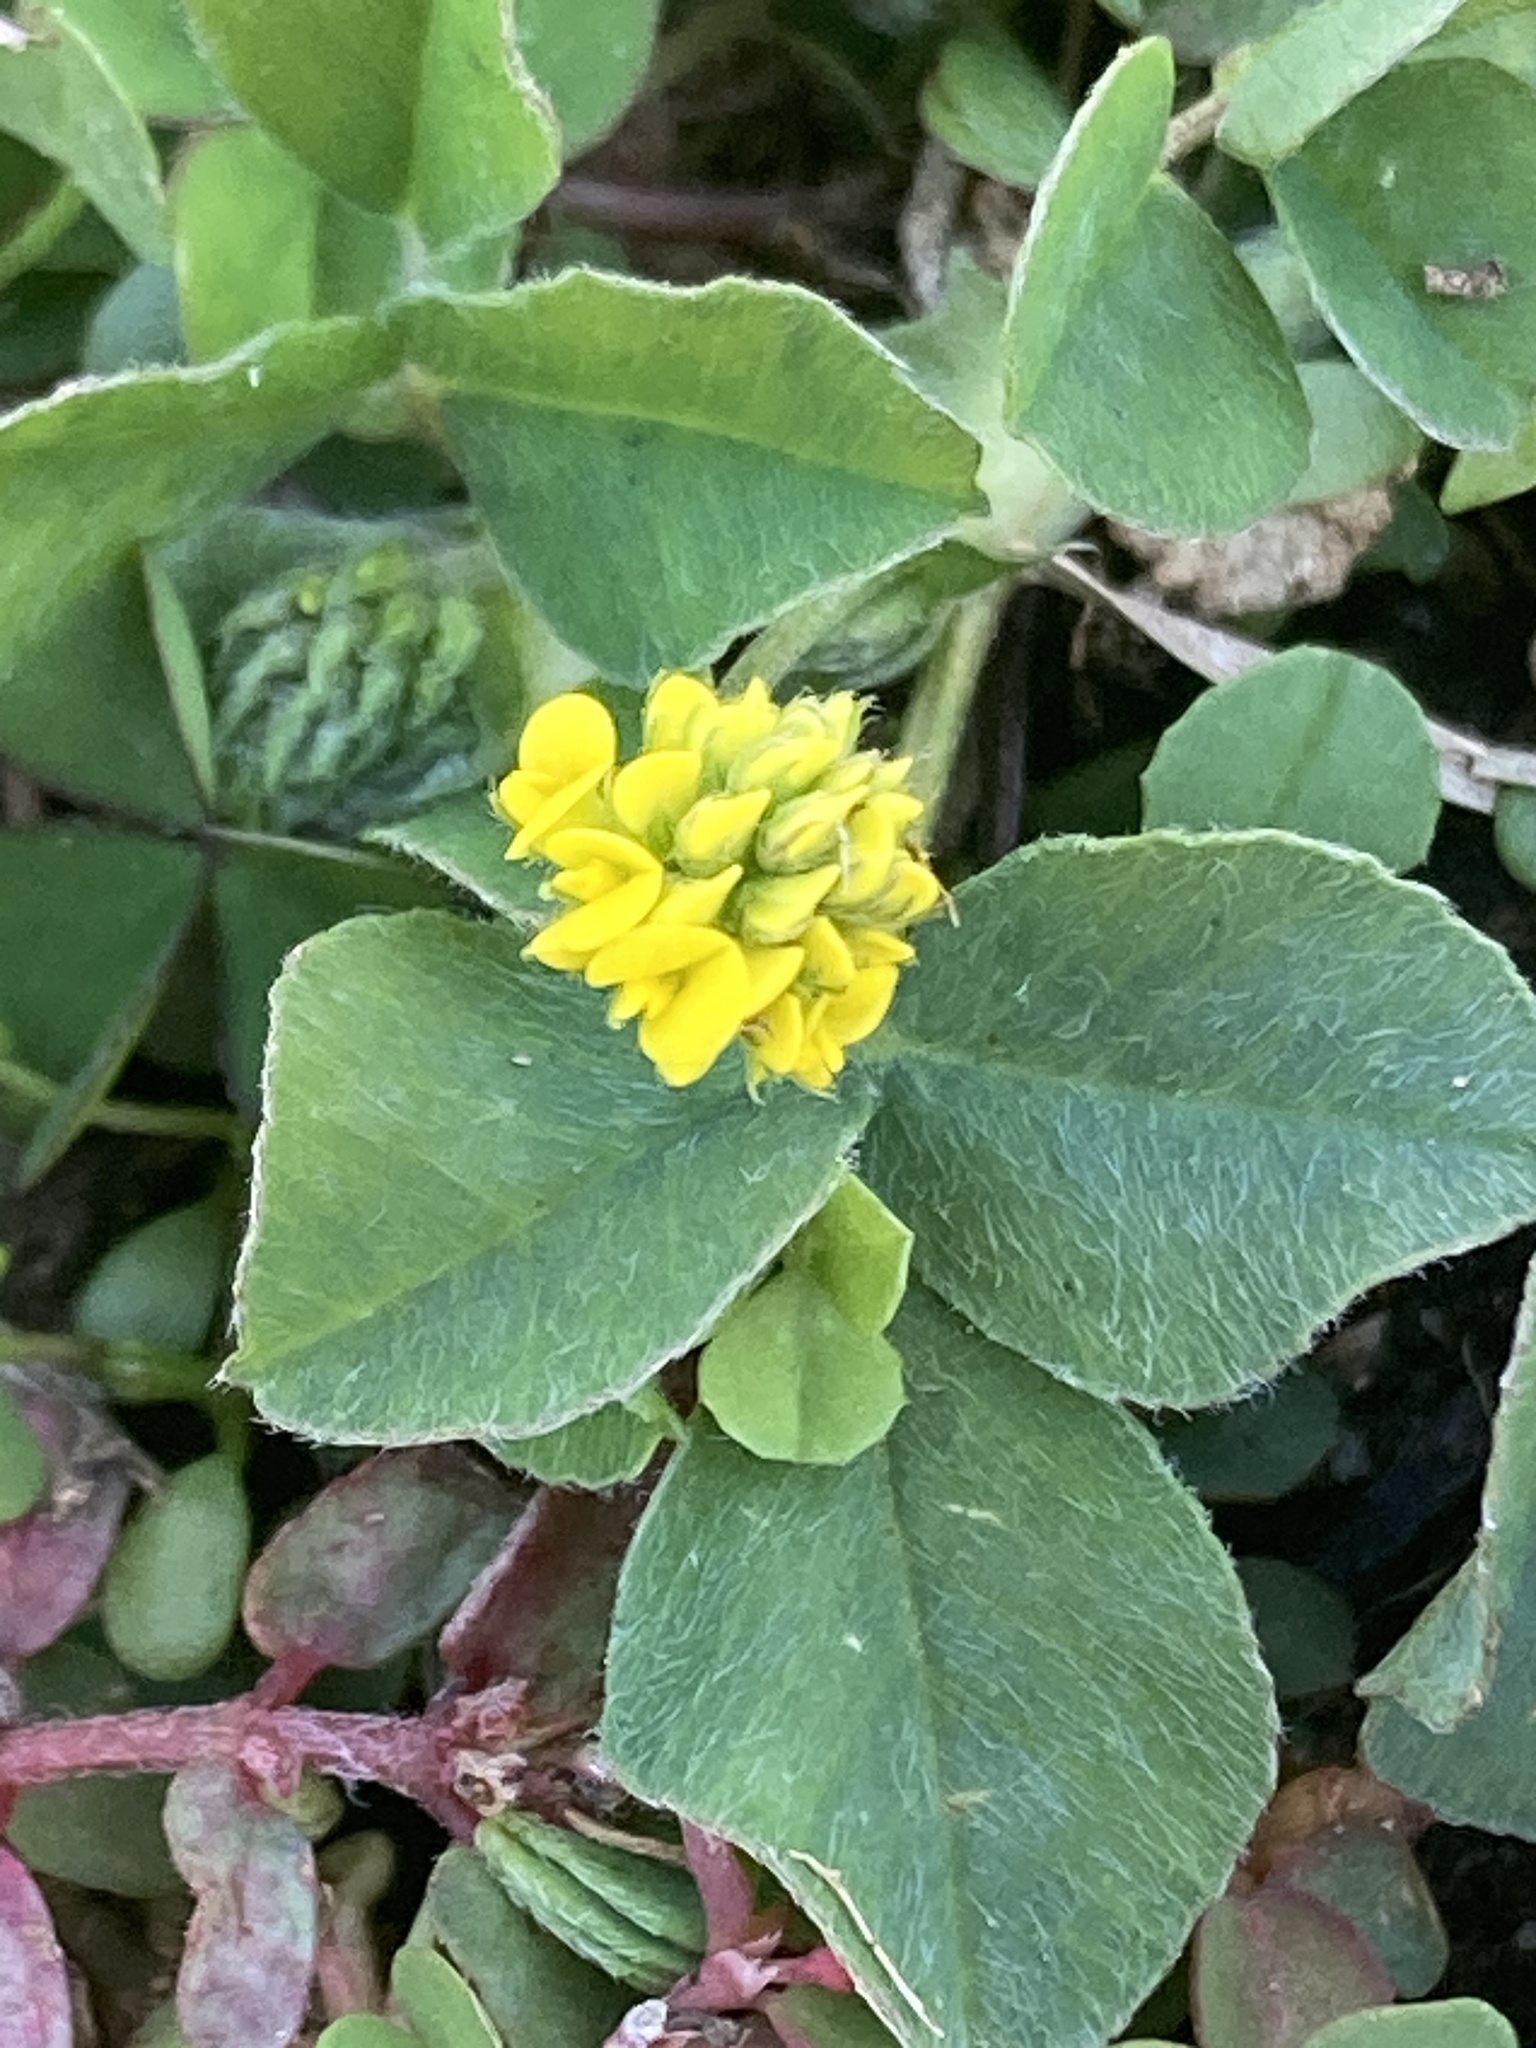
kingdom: Plantae
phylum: Tracheophyta
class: Magnoliopsida
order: Fabales
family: Fabaceae
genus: Medicago
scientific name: Medicago lupulina
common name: Black medick
